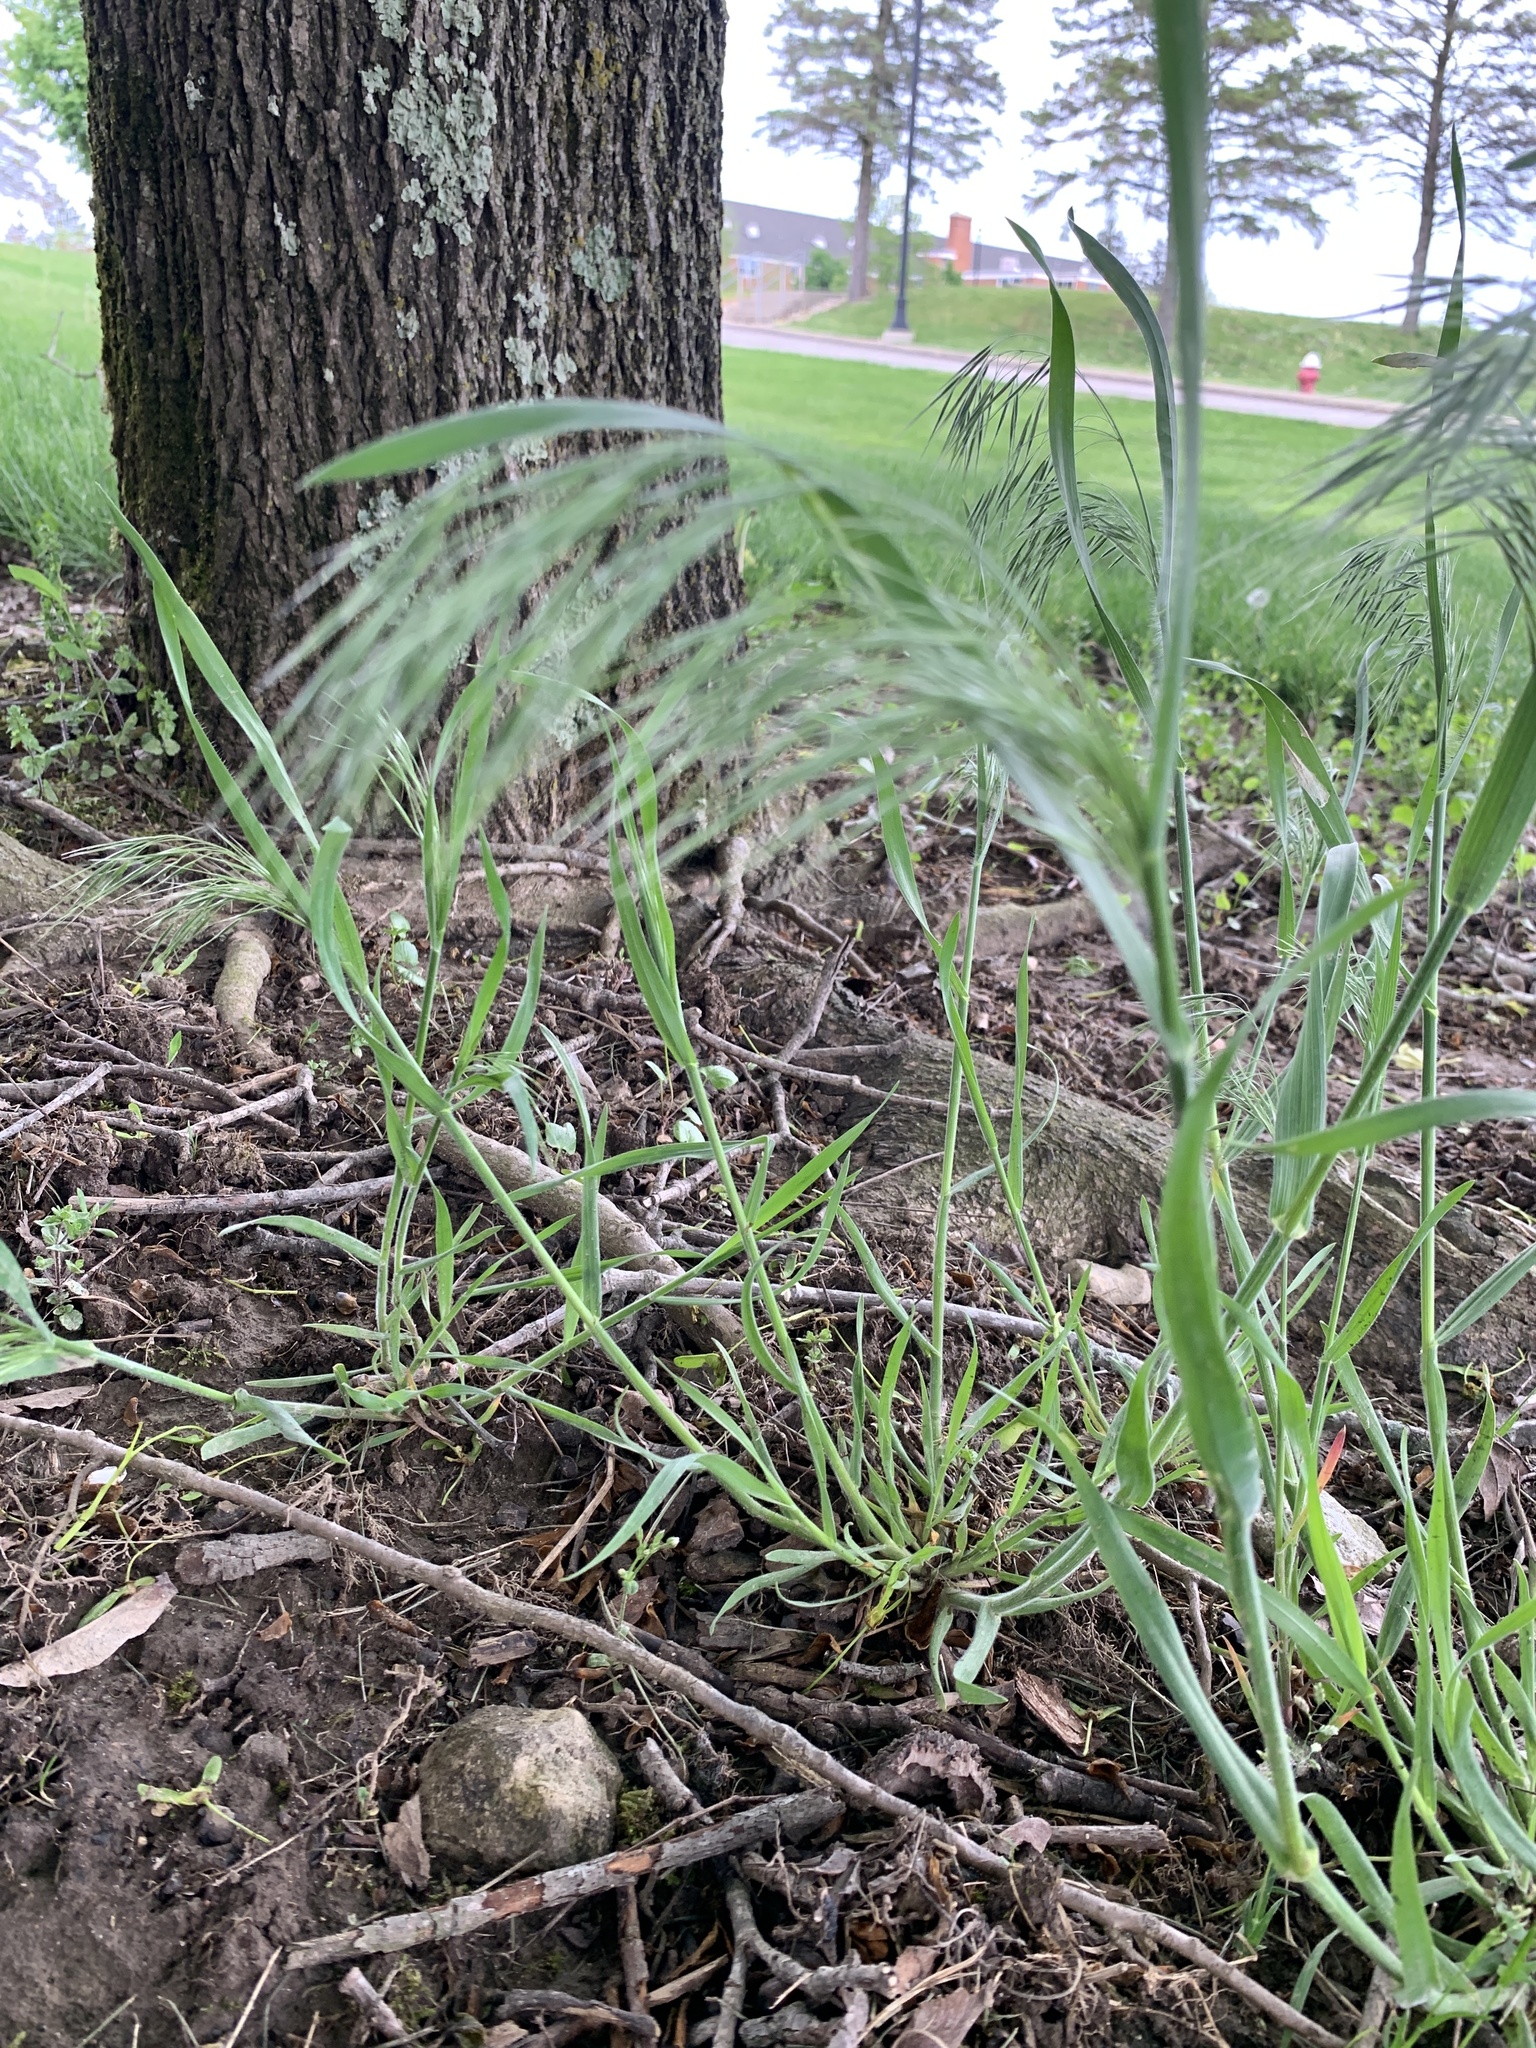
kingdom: Plantae
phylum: Tracheophyta
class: Liliopsida
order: Poales
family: Poaceae
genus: Bromus
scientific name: Bromus tectorum
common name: Cheatgrass
